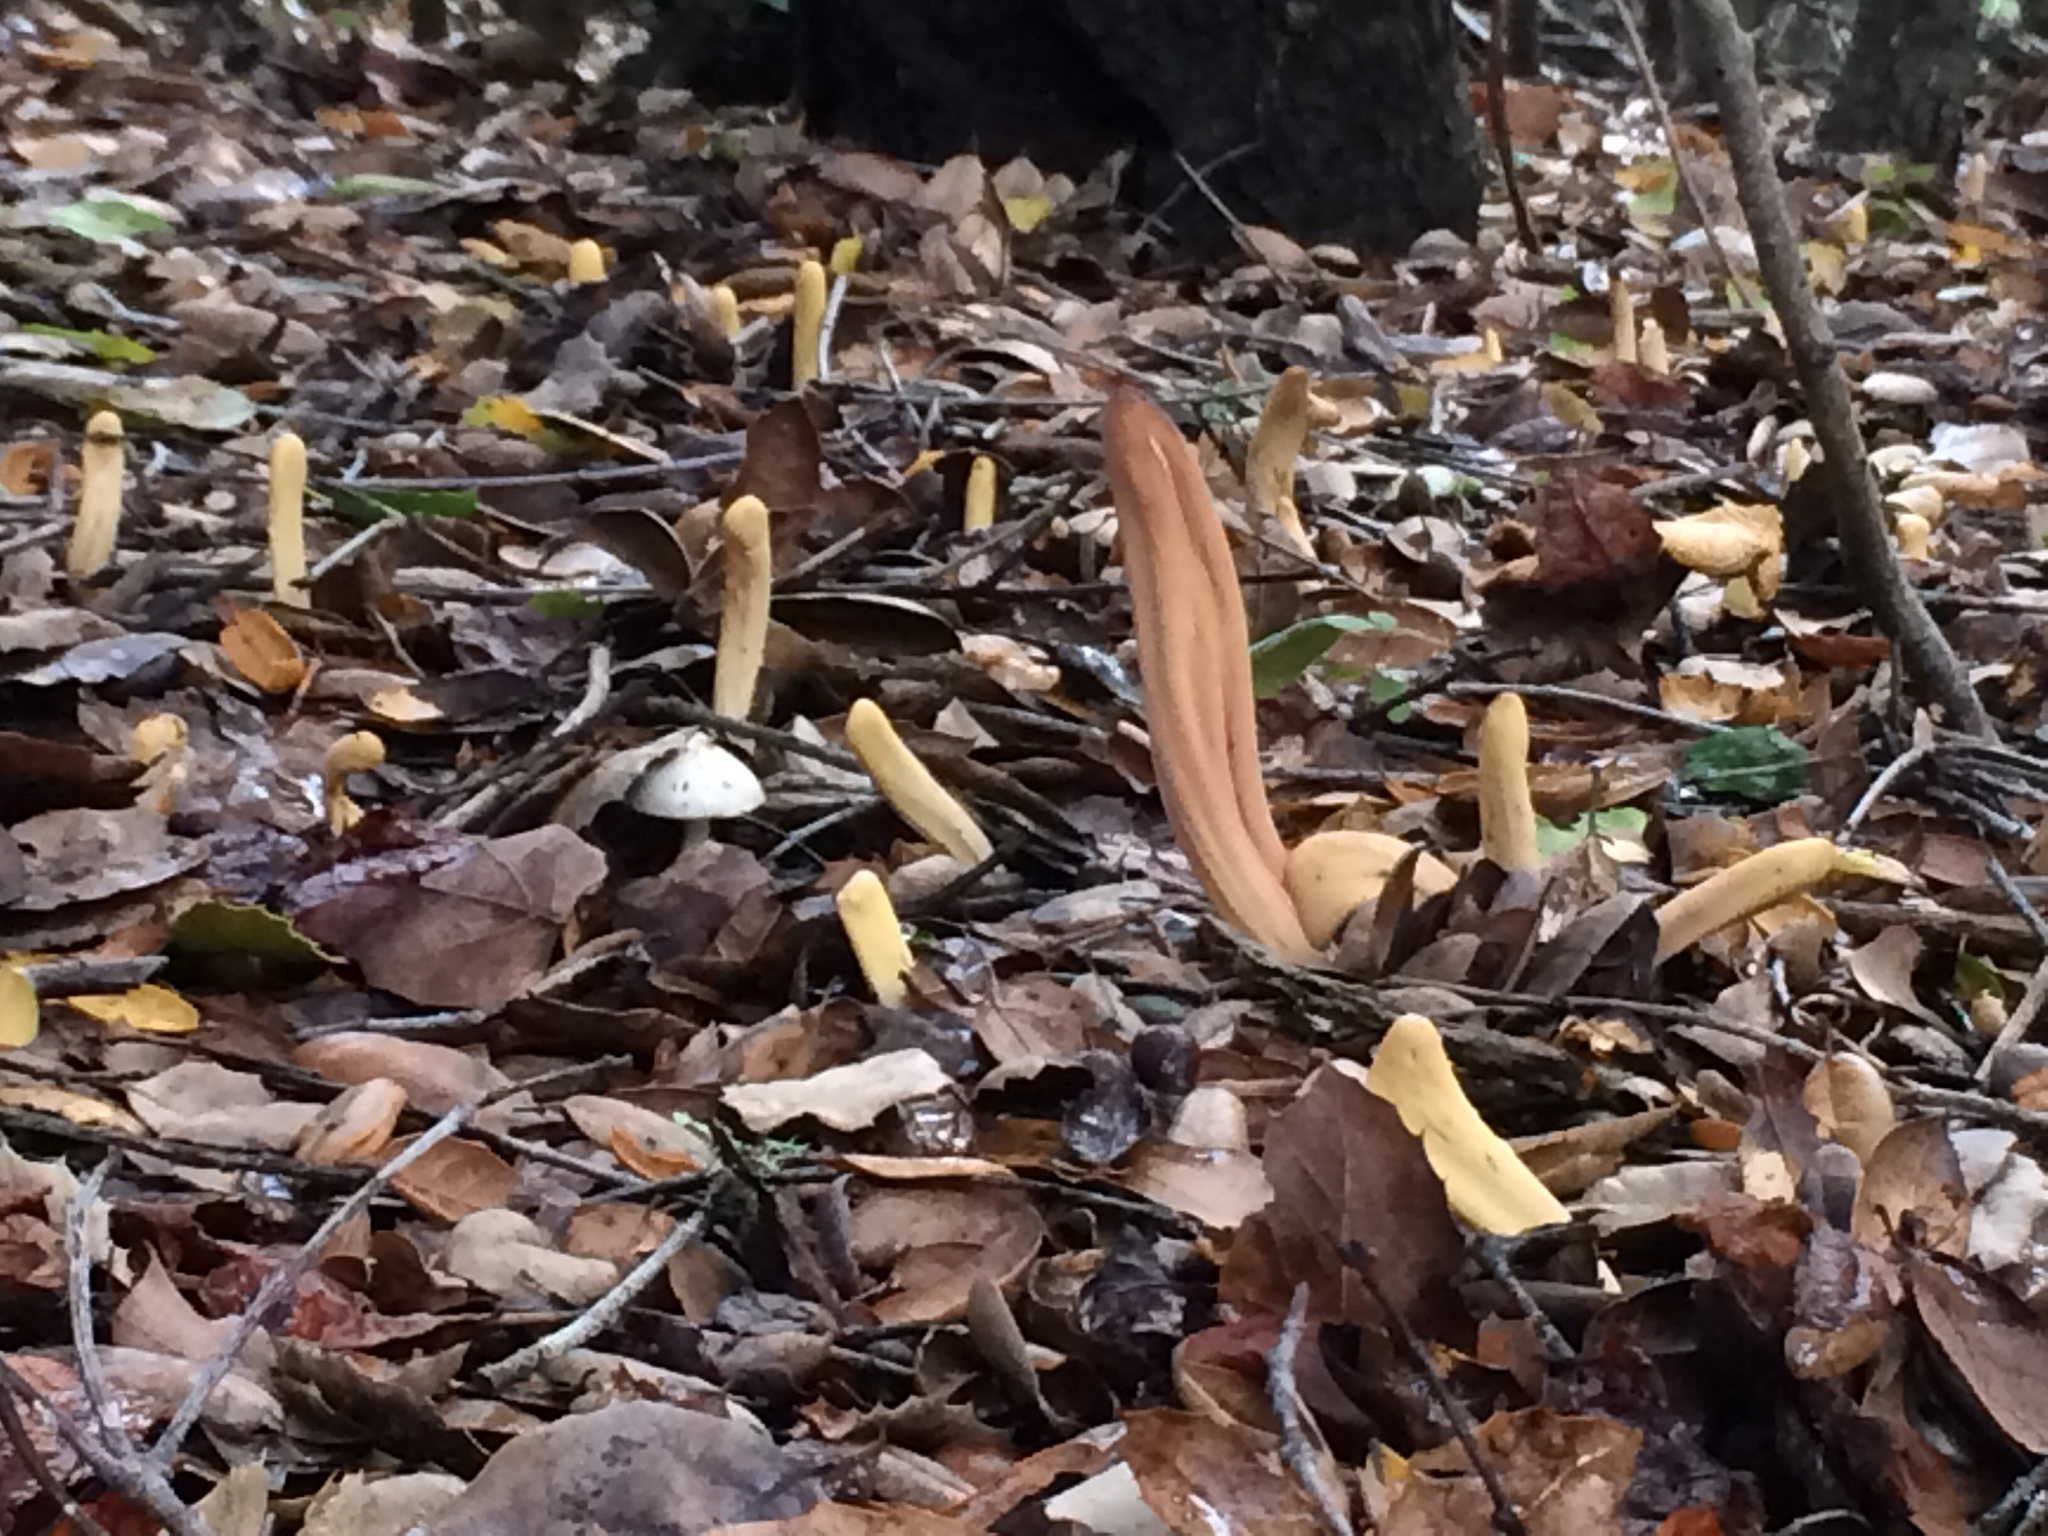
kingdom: Fungi
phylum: Basidiomycota
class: Agaricomycetes
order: Gomphales
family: Clavariadelphaceae
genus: Clavariadelphus
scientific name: Clavariadelphus occidentalis
